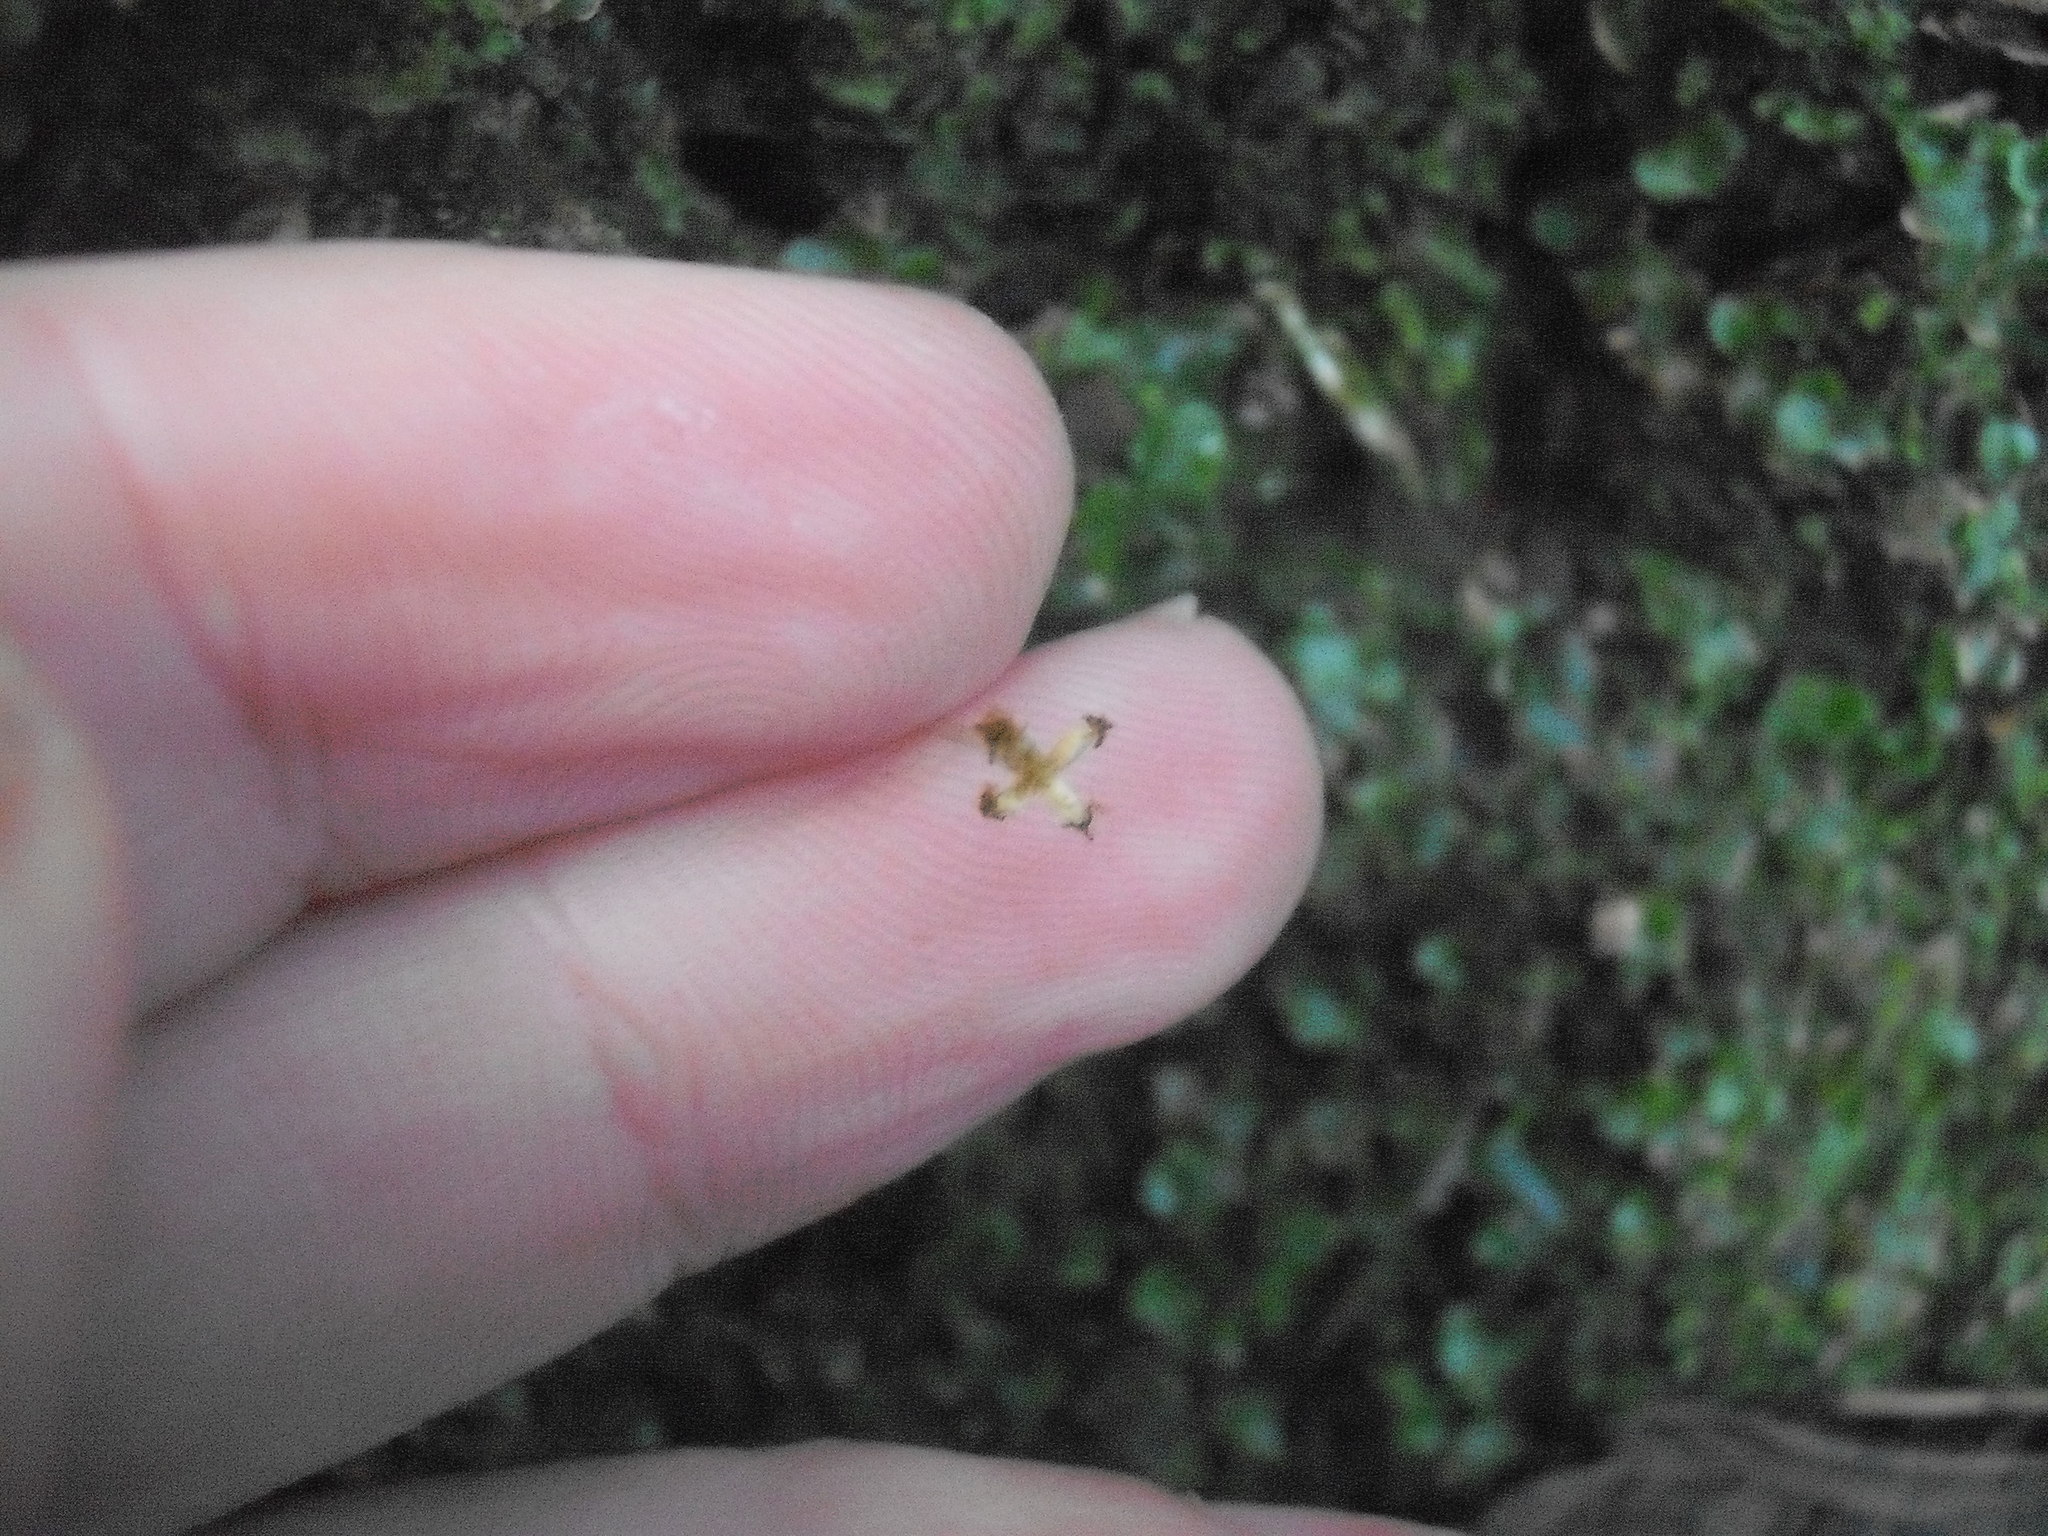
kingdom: Plantae
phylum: Marchantiophyta
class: Marchantiopsida
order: Lunulariales
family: Lunulariaceae
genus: Lunularia
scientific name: Lunularia cruciata
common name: Crescent-cup liverwort
